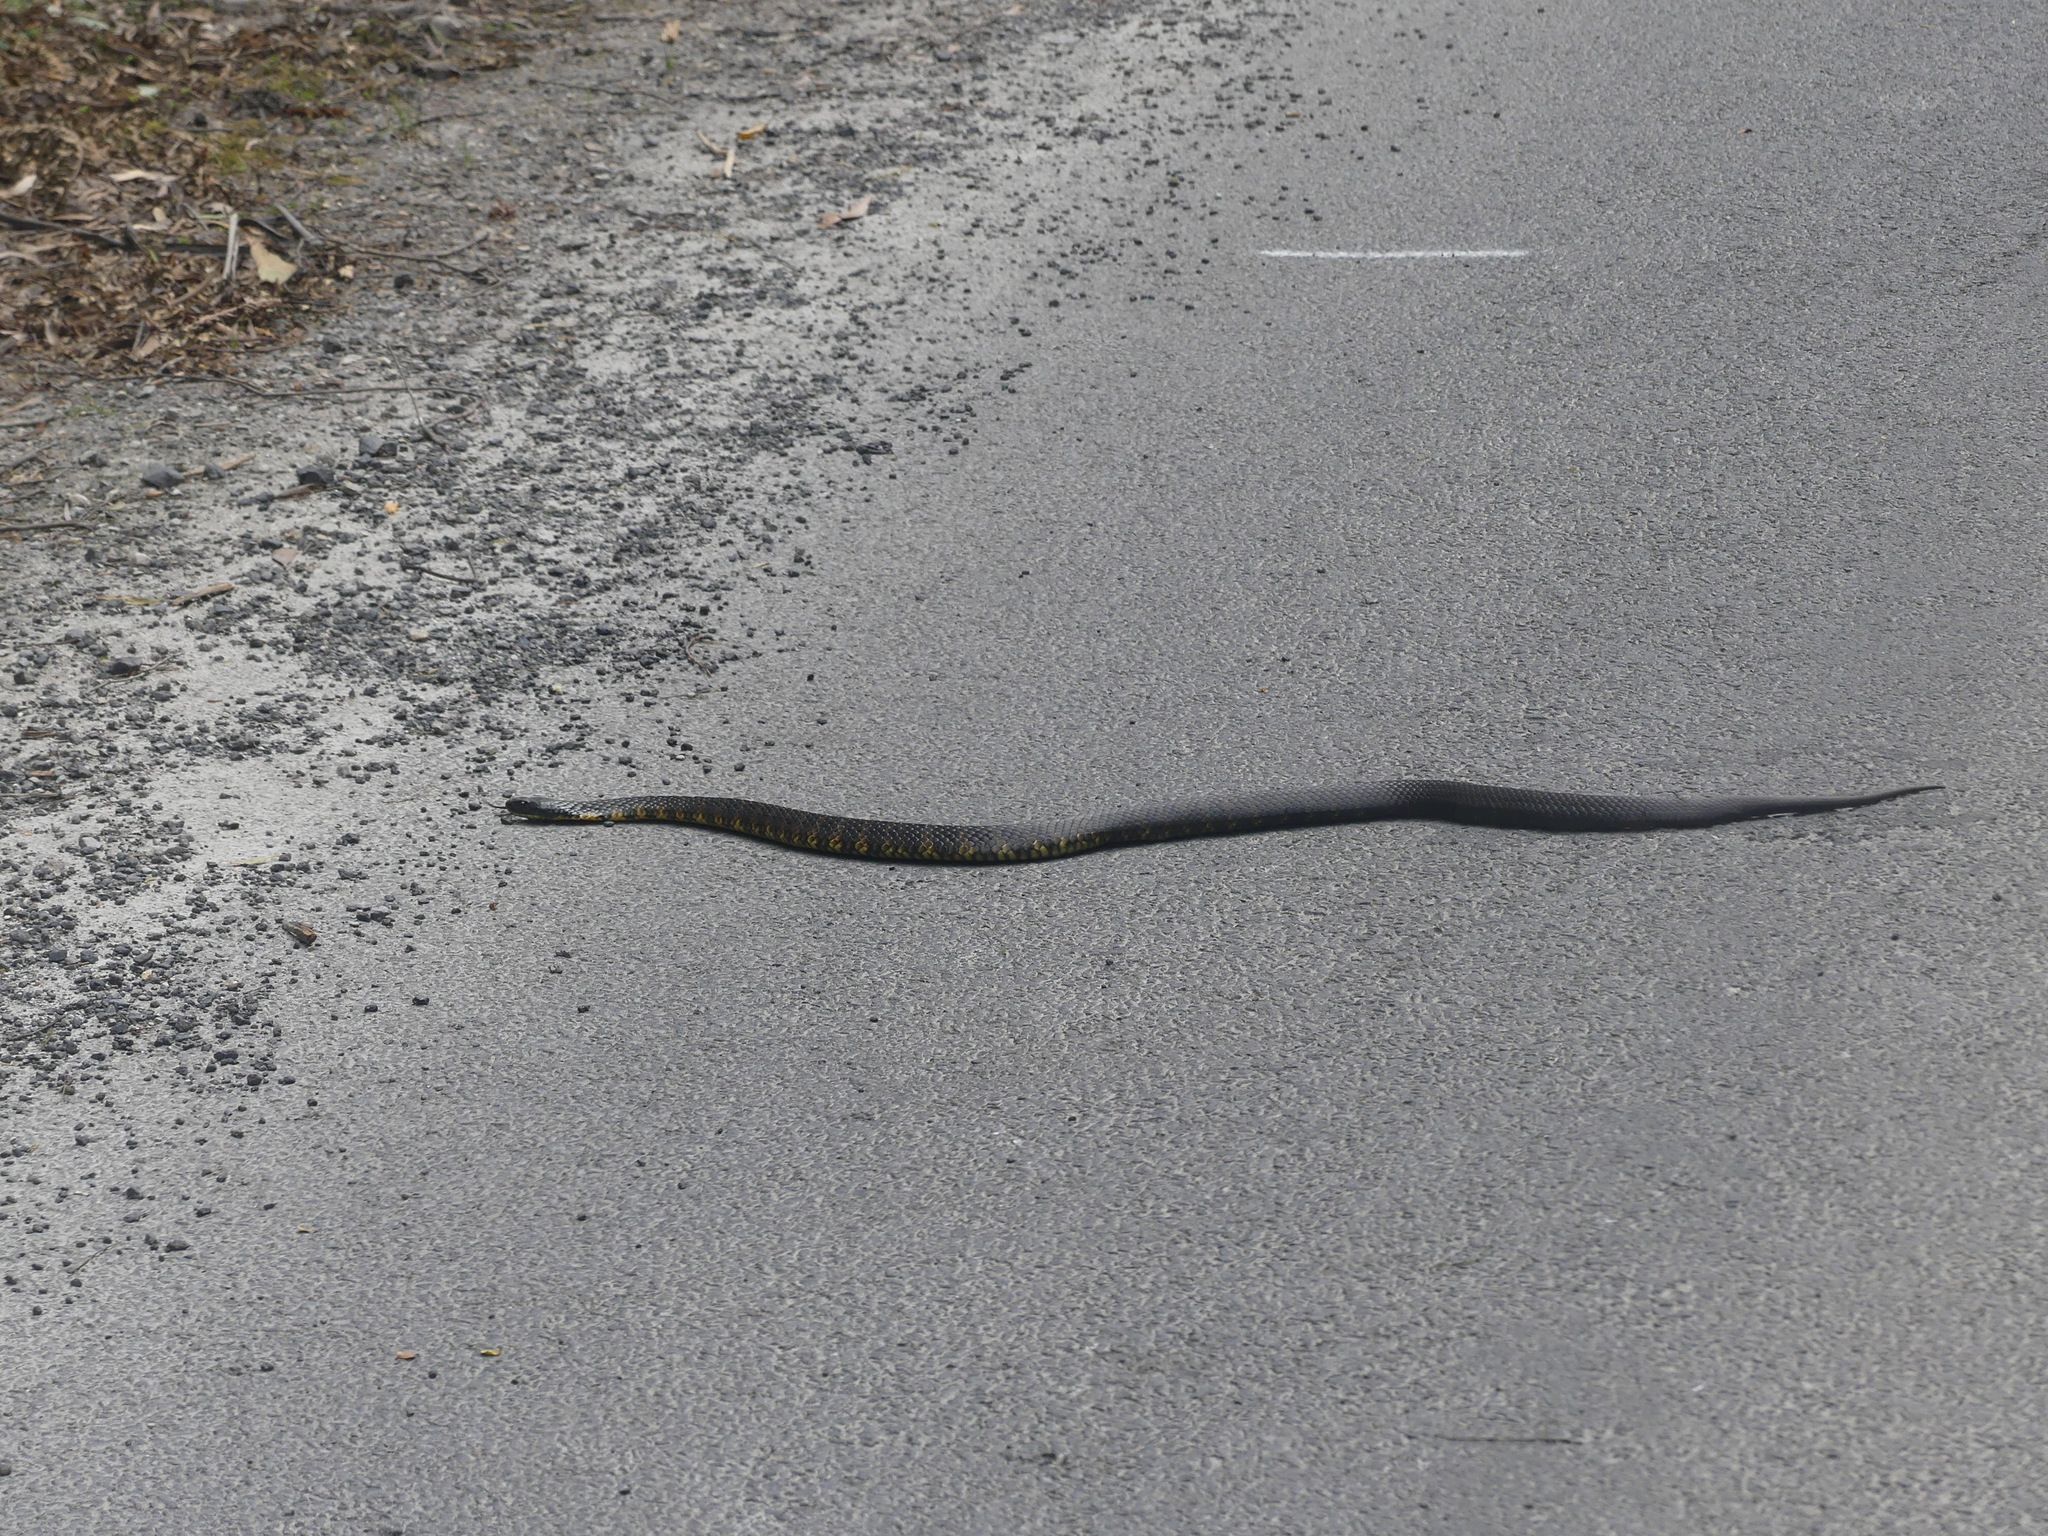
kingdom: Animalia
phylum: Chordata
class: Squamata
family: Elapidae
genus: Notechis
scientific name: Notechis scutatus
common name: Mainland tiger snake
